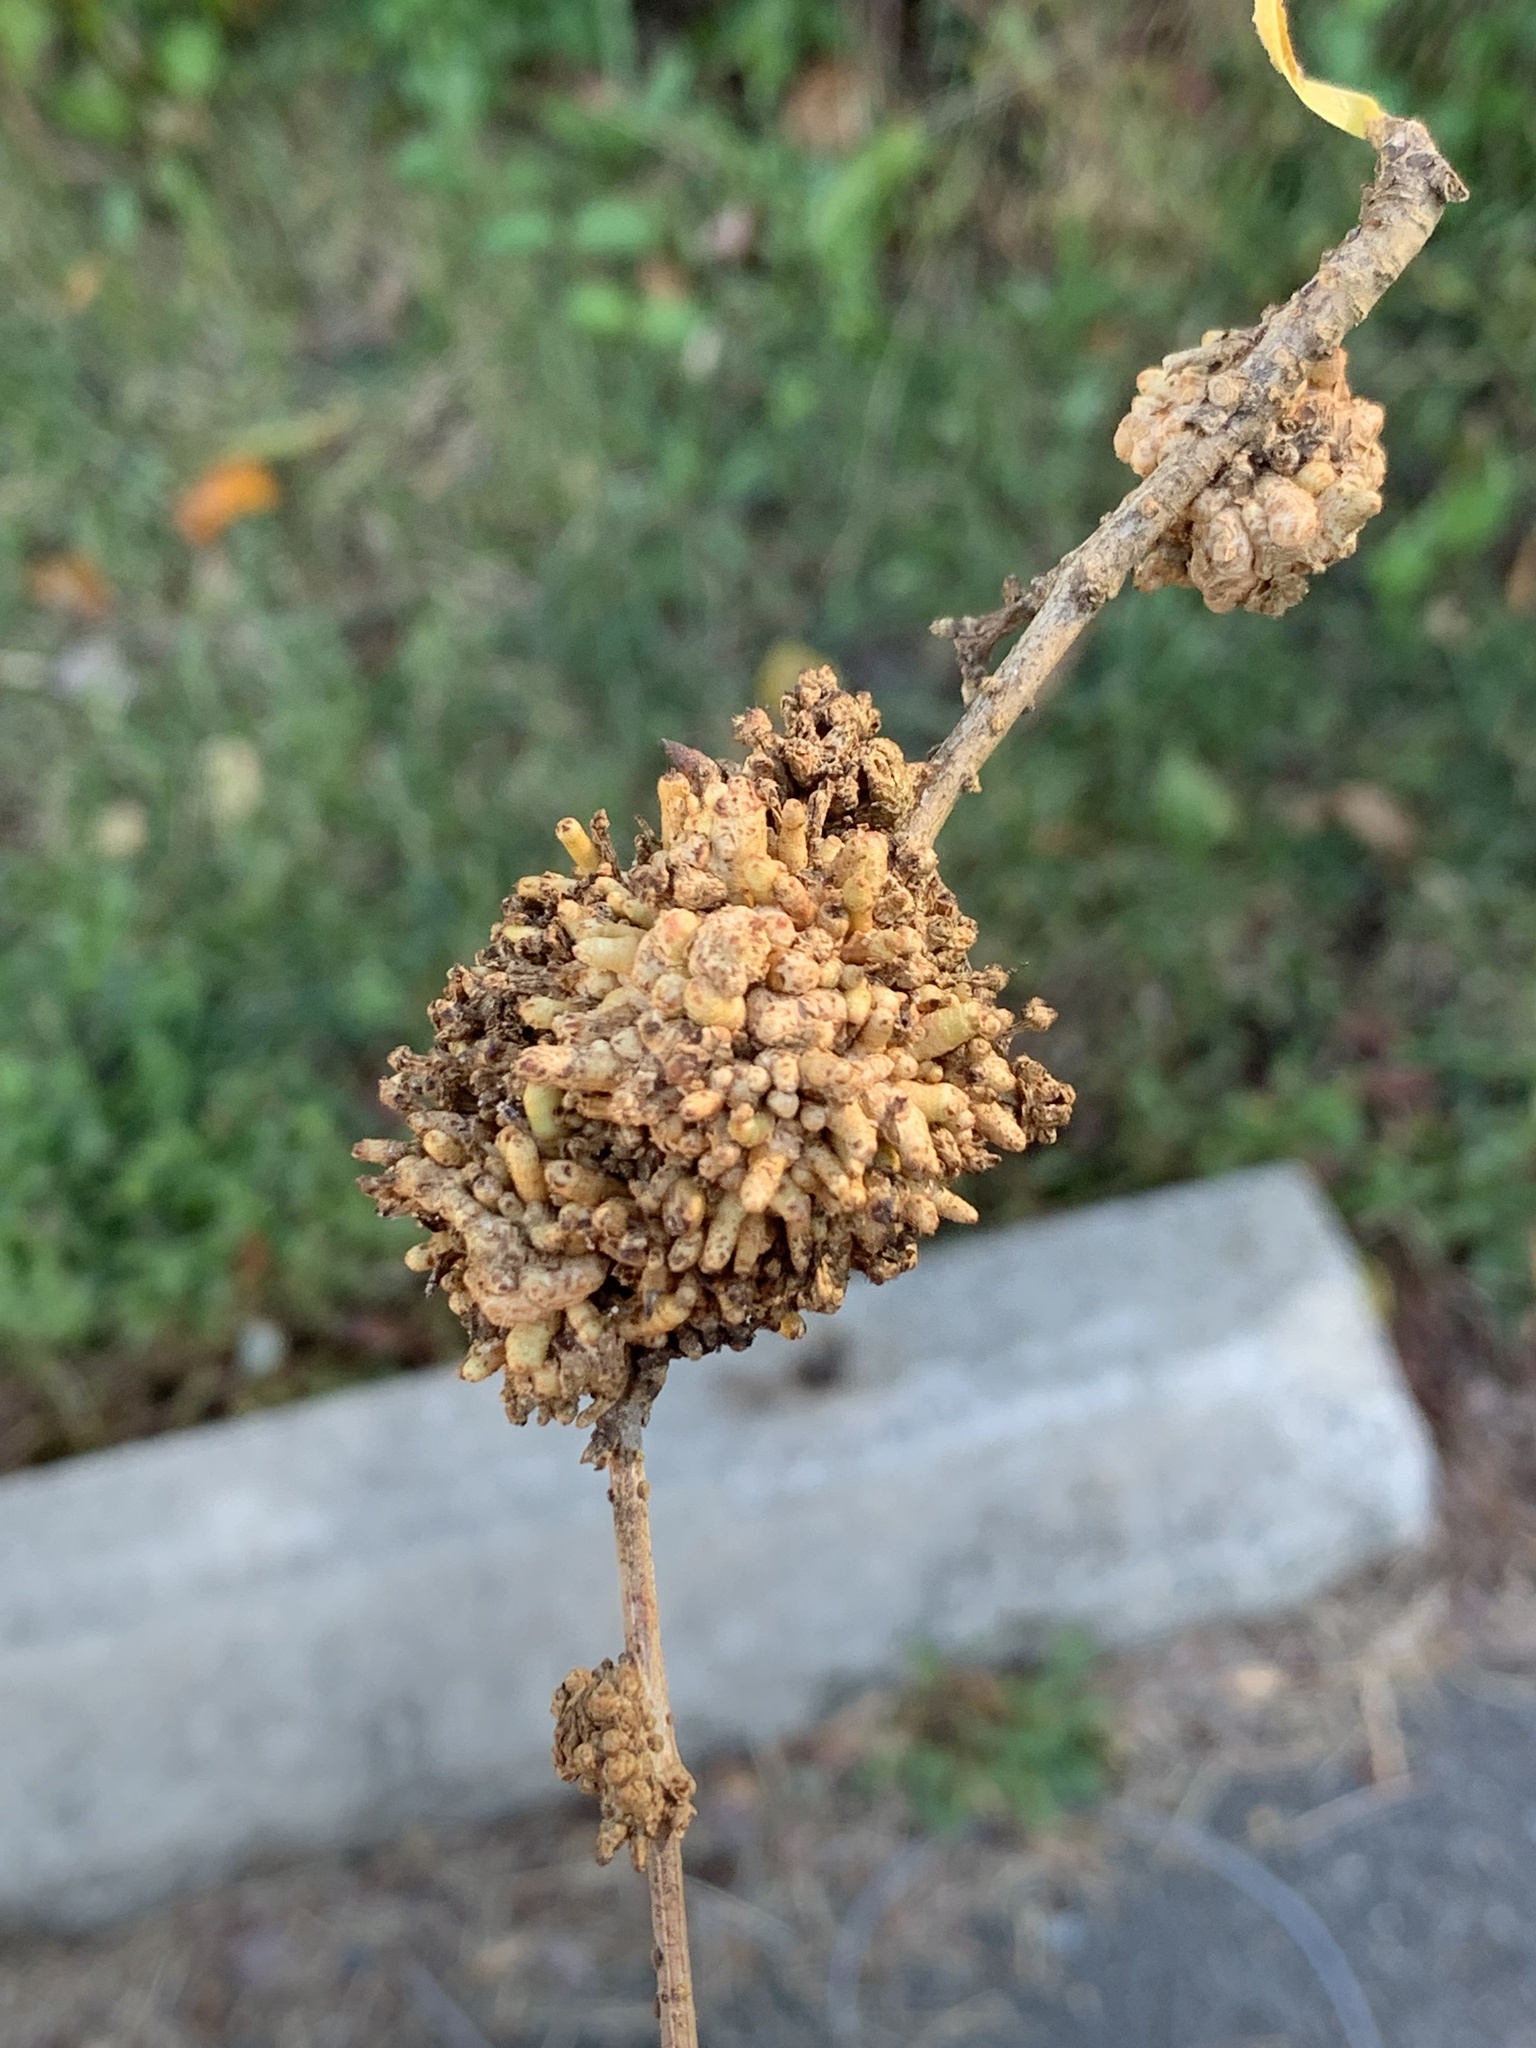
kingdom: Bacteria
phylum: Proteobacteria
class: Gammaproteobacteria
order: Pseudomonadales
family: Pseudomonadaceae
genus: Pseudomonas
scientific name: Pseudomonas
